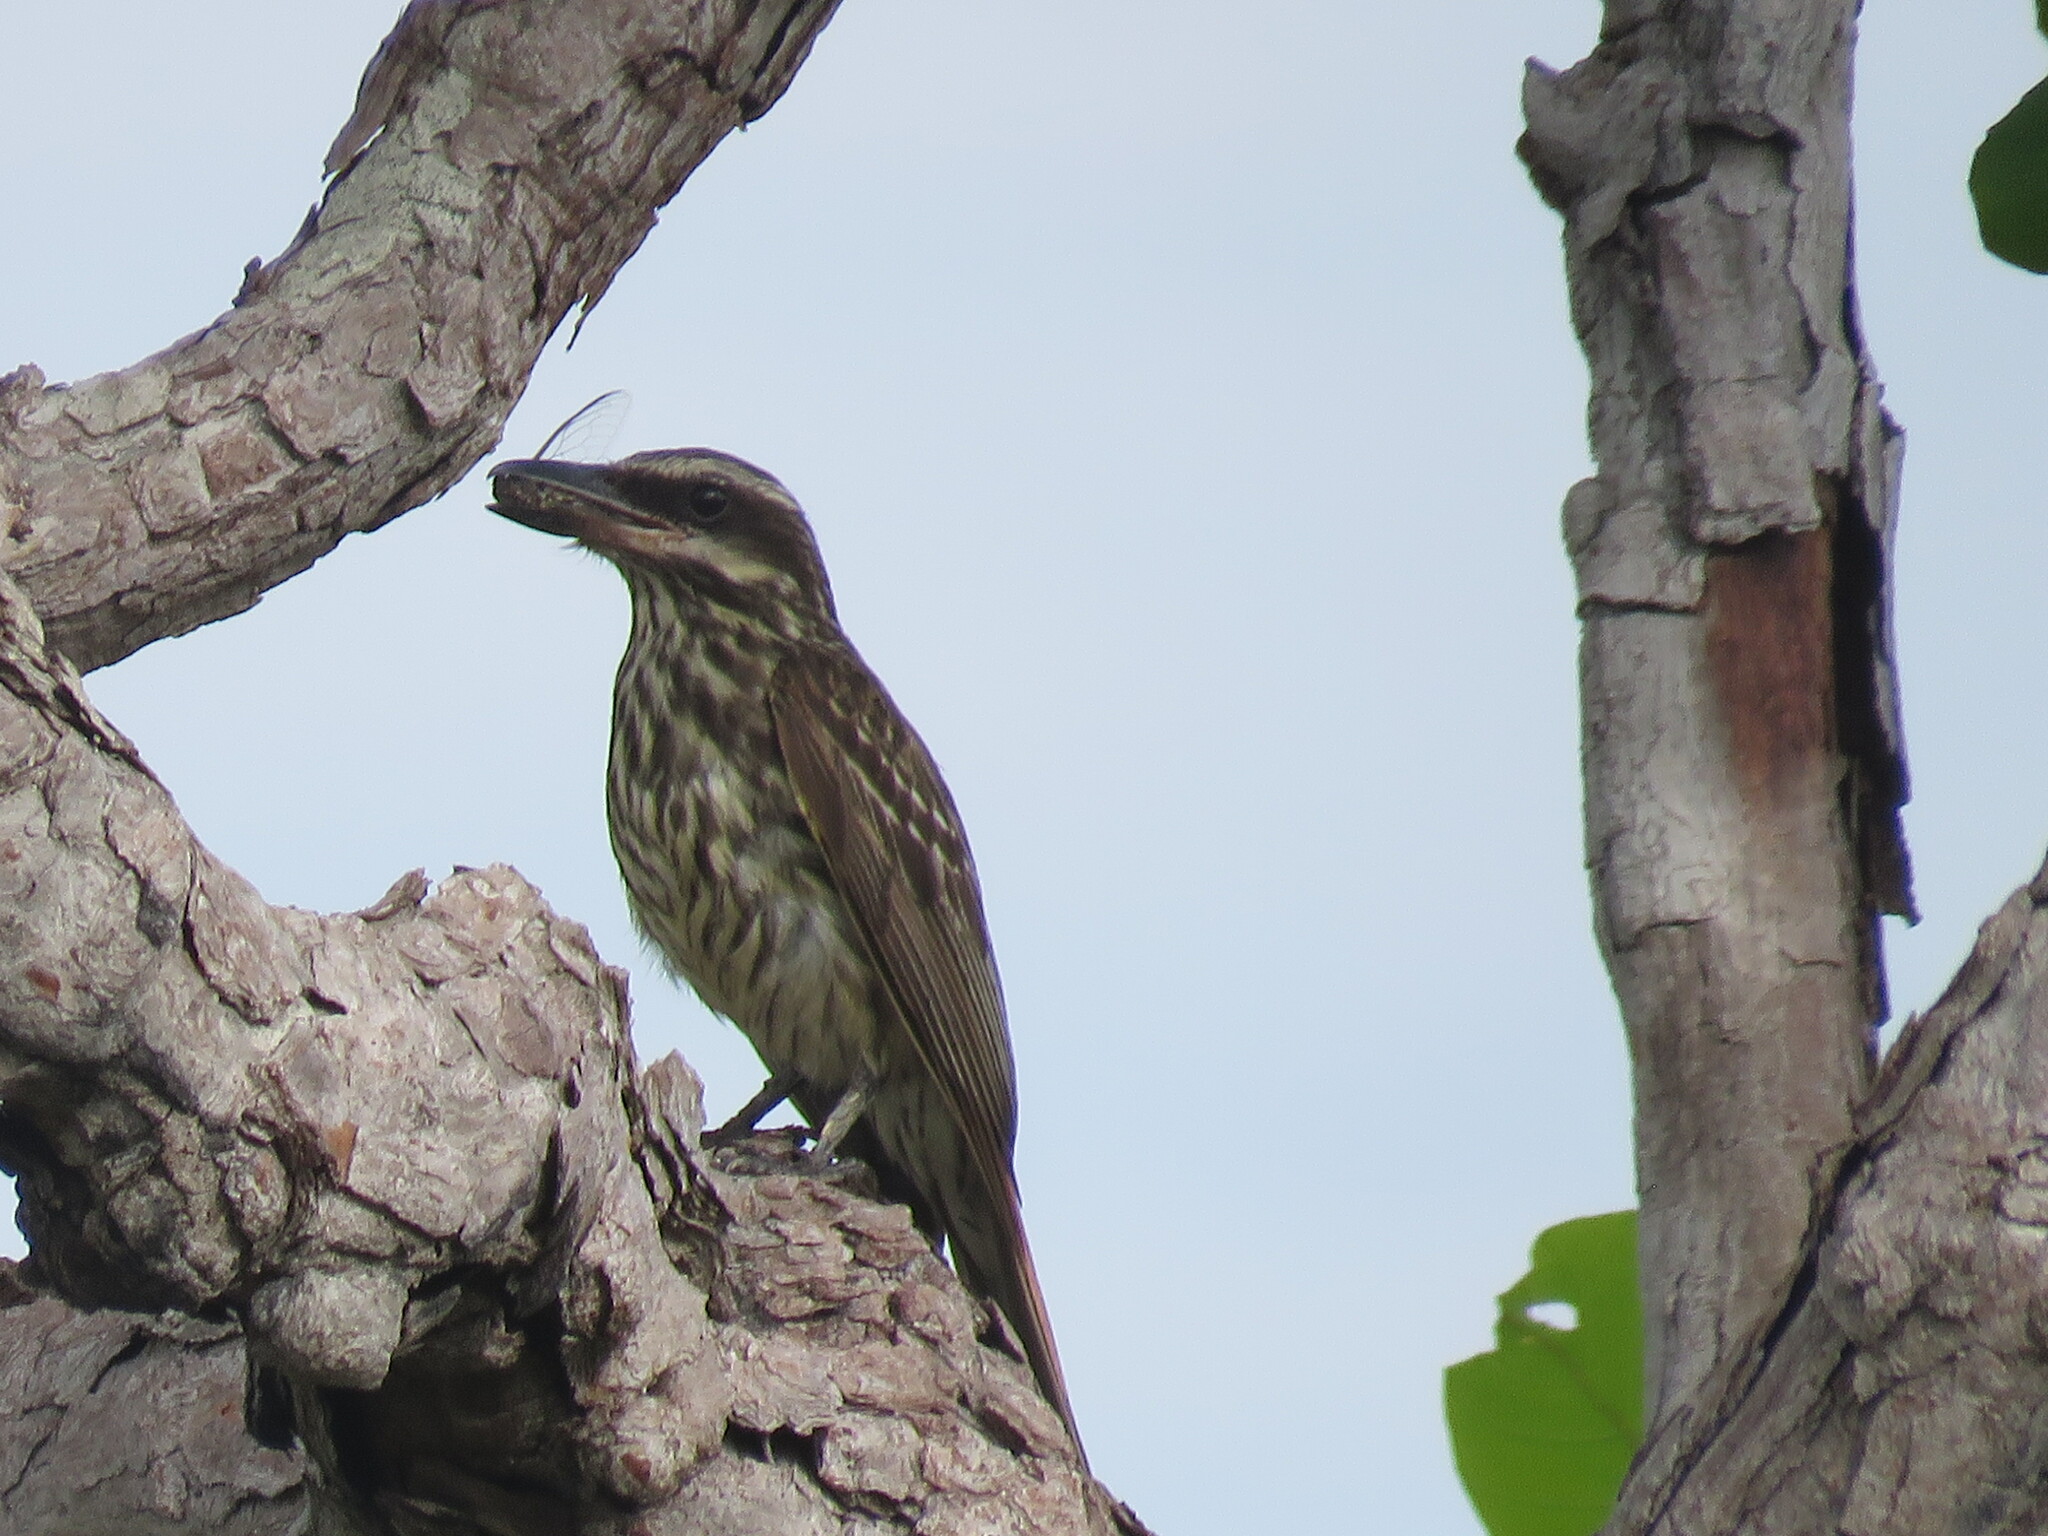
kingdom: Animalia
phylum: Chordata
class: Aves
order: Passeriformes
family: Tyrannidae
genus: Myiodynastes
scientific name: Myiodynastes maculatus
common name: Streaked flycatcher
